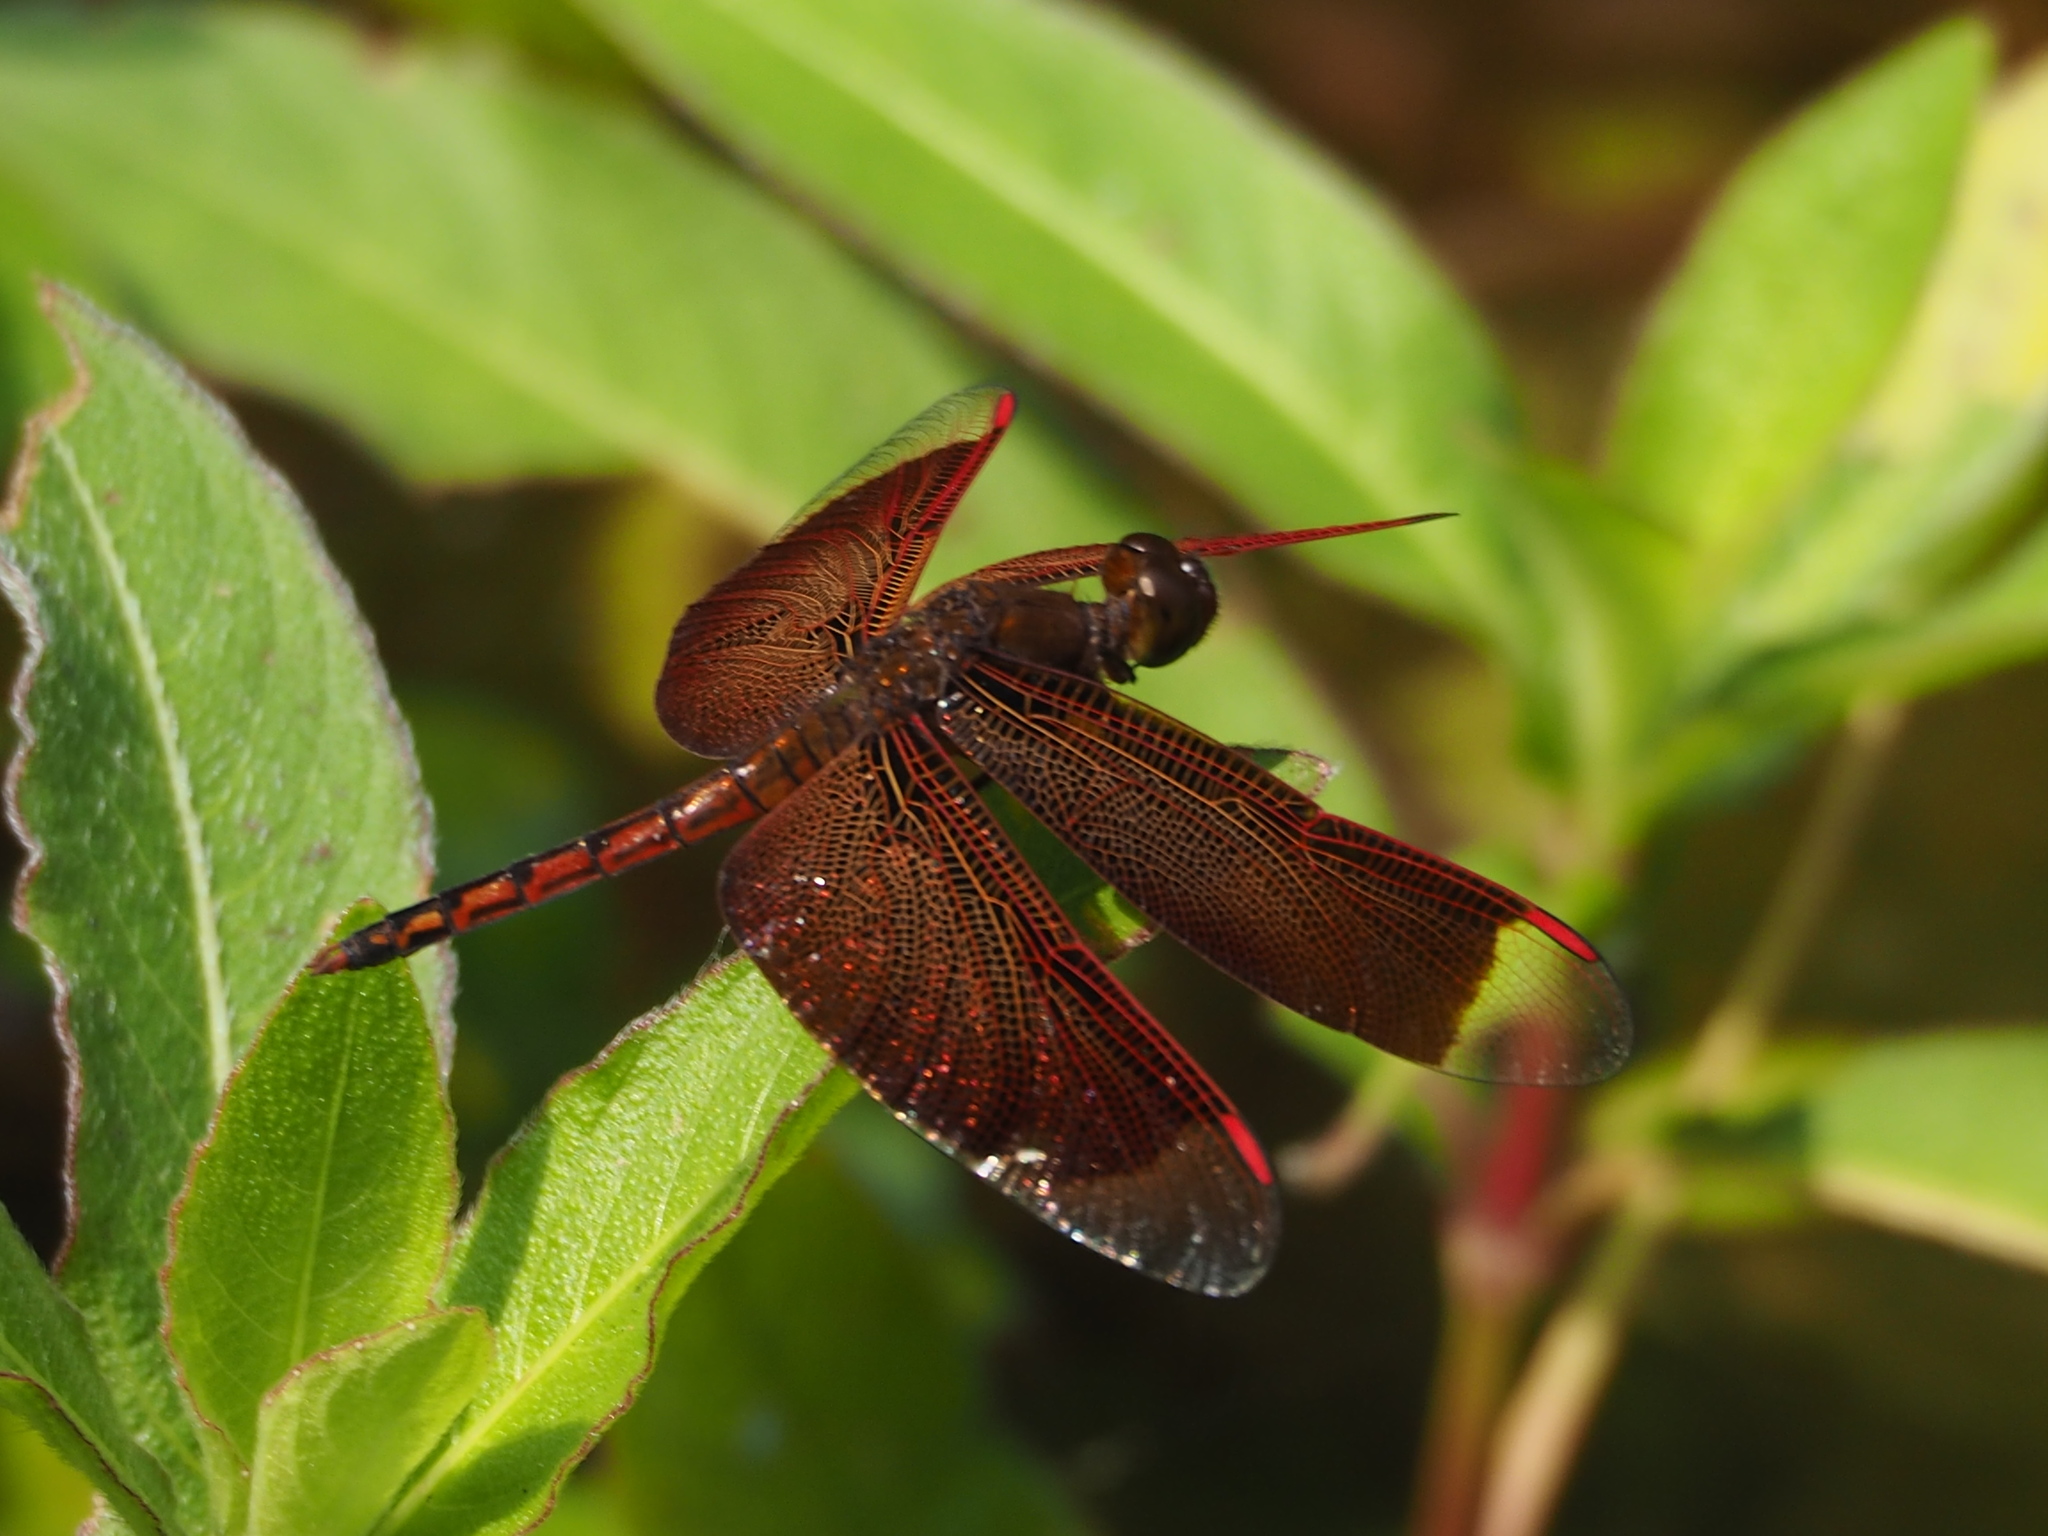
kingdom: Animalia
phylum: Arthropoda
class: Insecta
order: Odonata
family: Libellulidae
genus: Neurothemis
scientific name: Neurothemis taiwanensis
